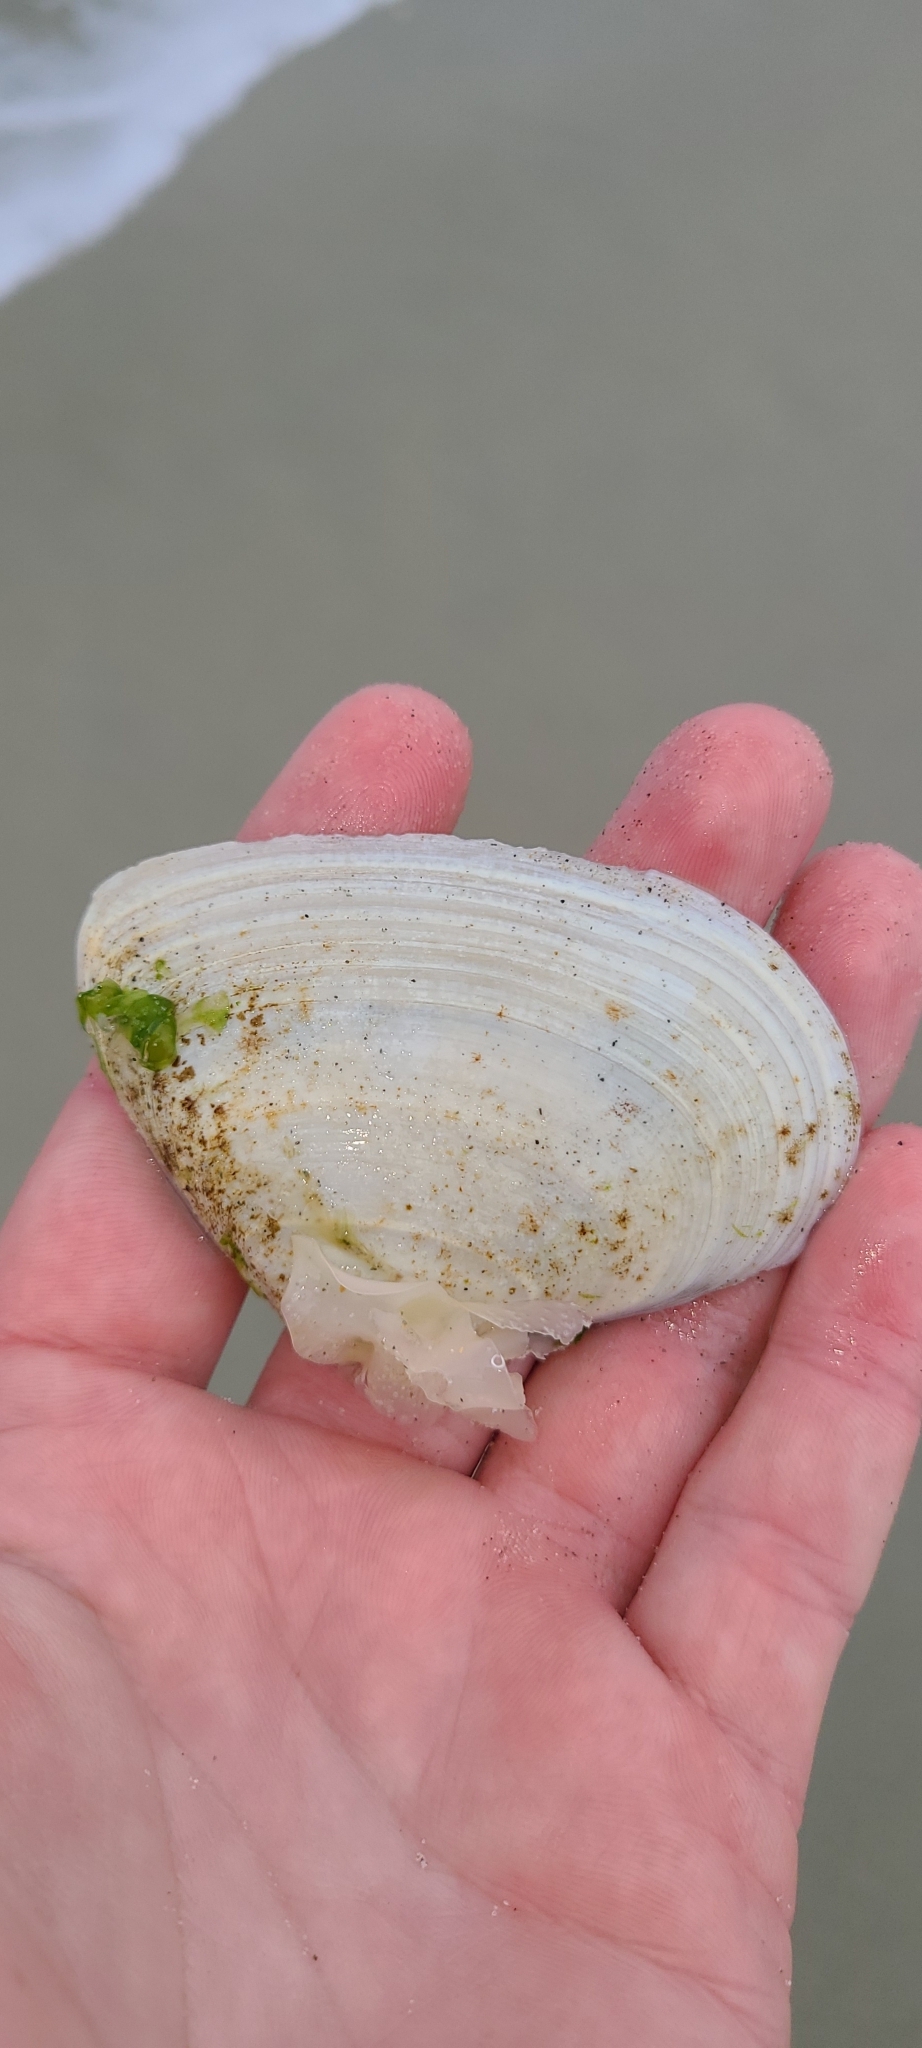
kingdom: Animalia
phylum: Mollusca
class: Bivalvia
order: Venerida
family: Mesodesmatidae
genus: Paphies
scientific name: Paphies donacina
